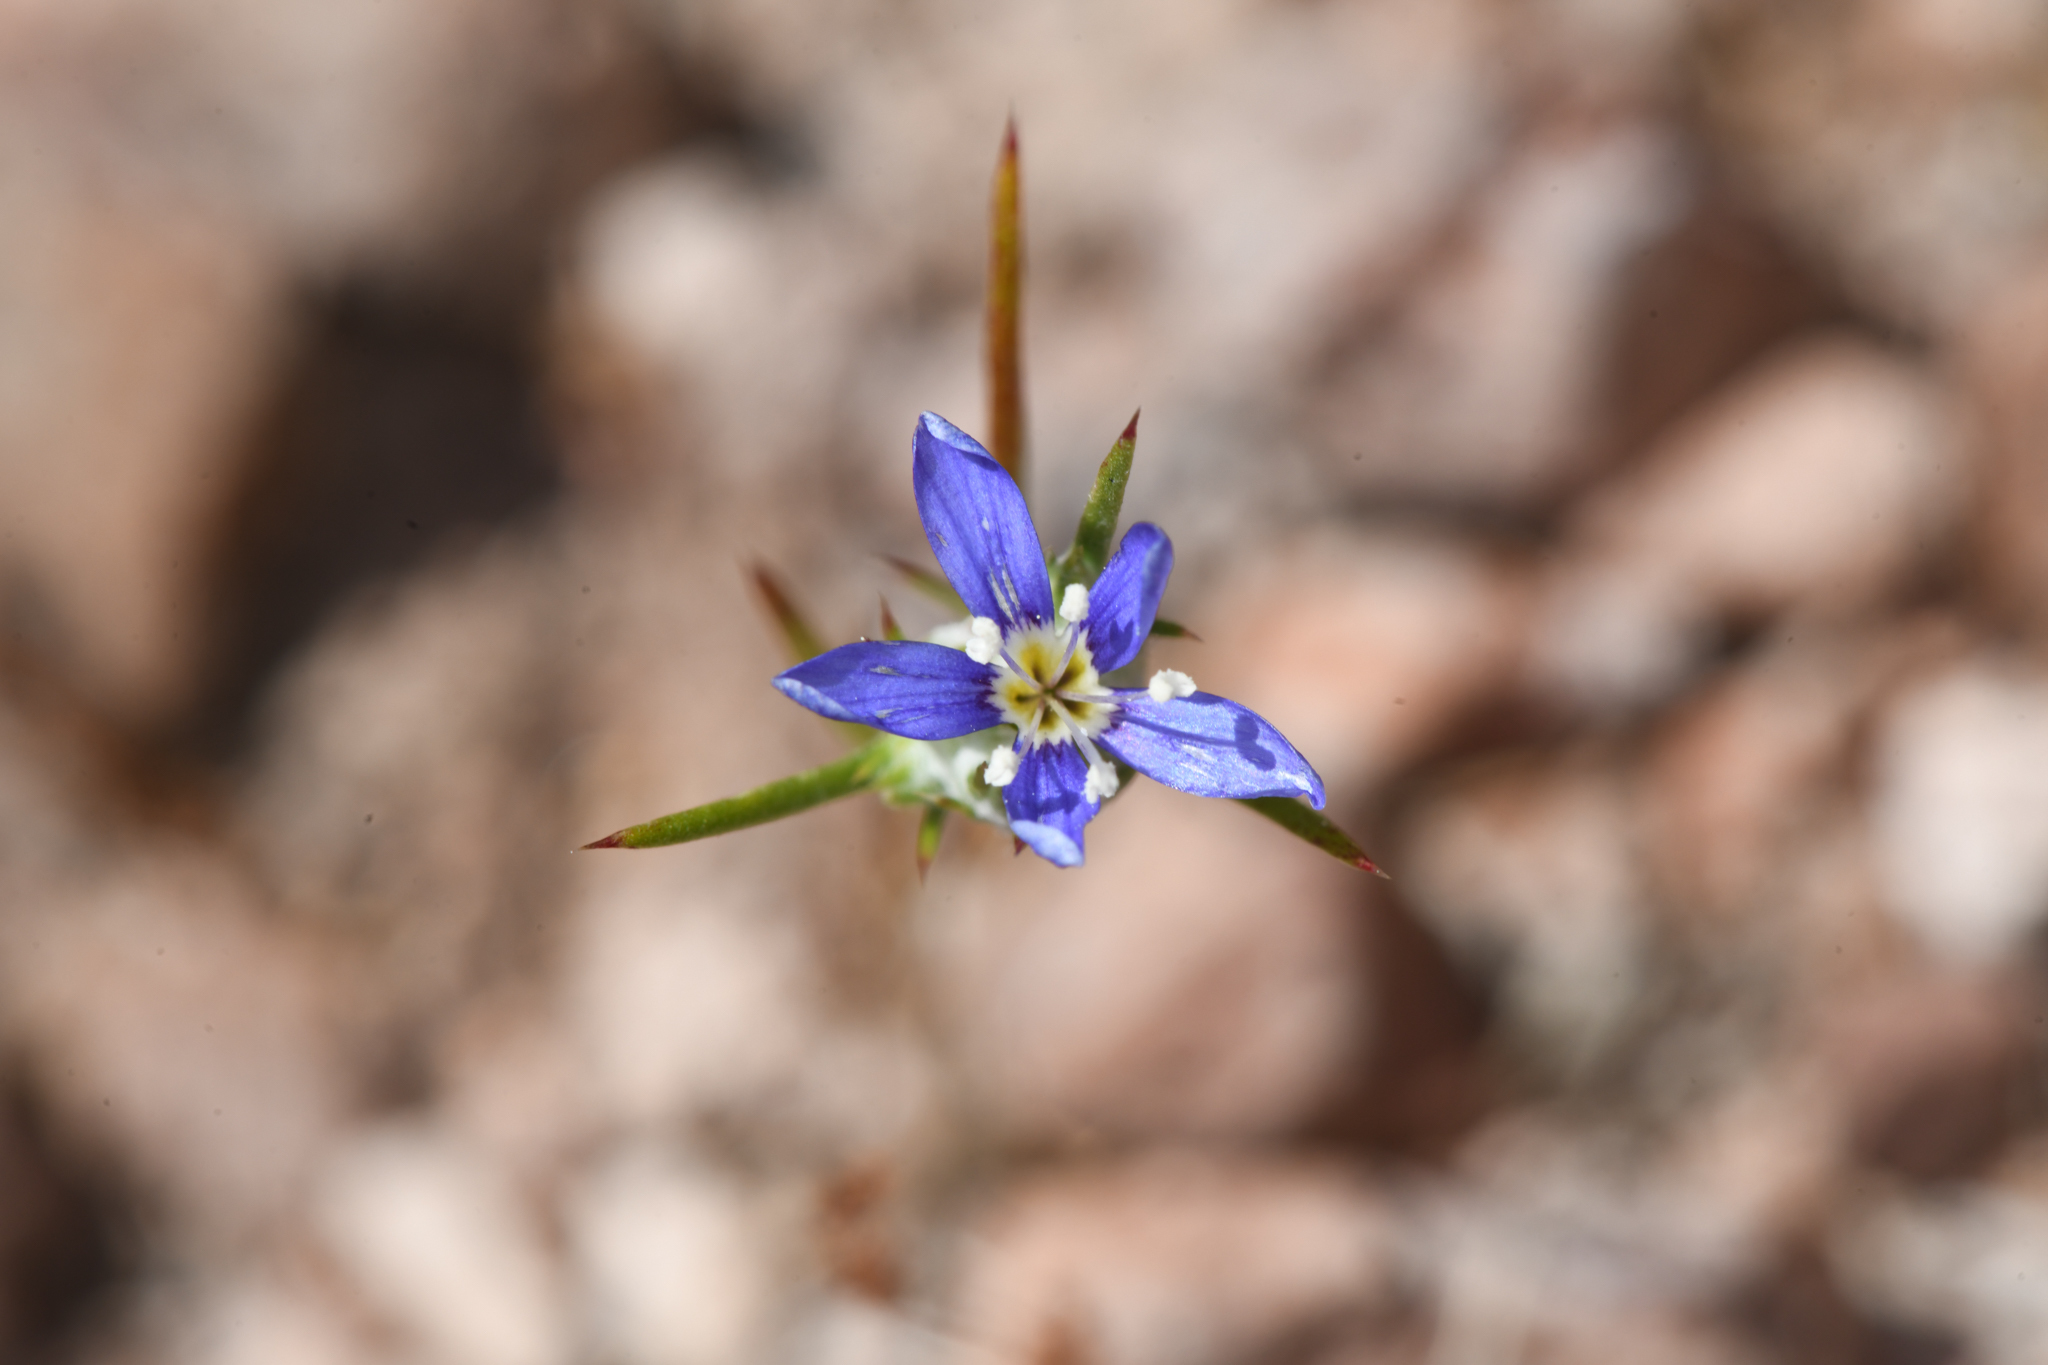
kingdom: Plantae
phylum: Tracheophyta
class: Magnoliopsida
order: Ericales
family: Polemoniaceae
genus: Eriastrum
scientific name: Eriastrum virgatum
